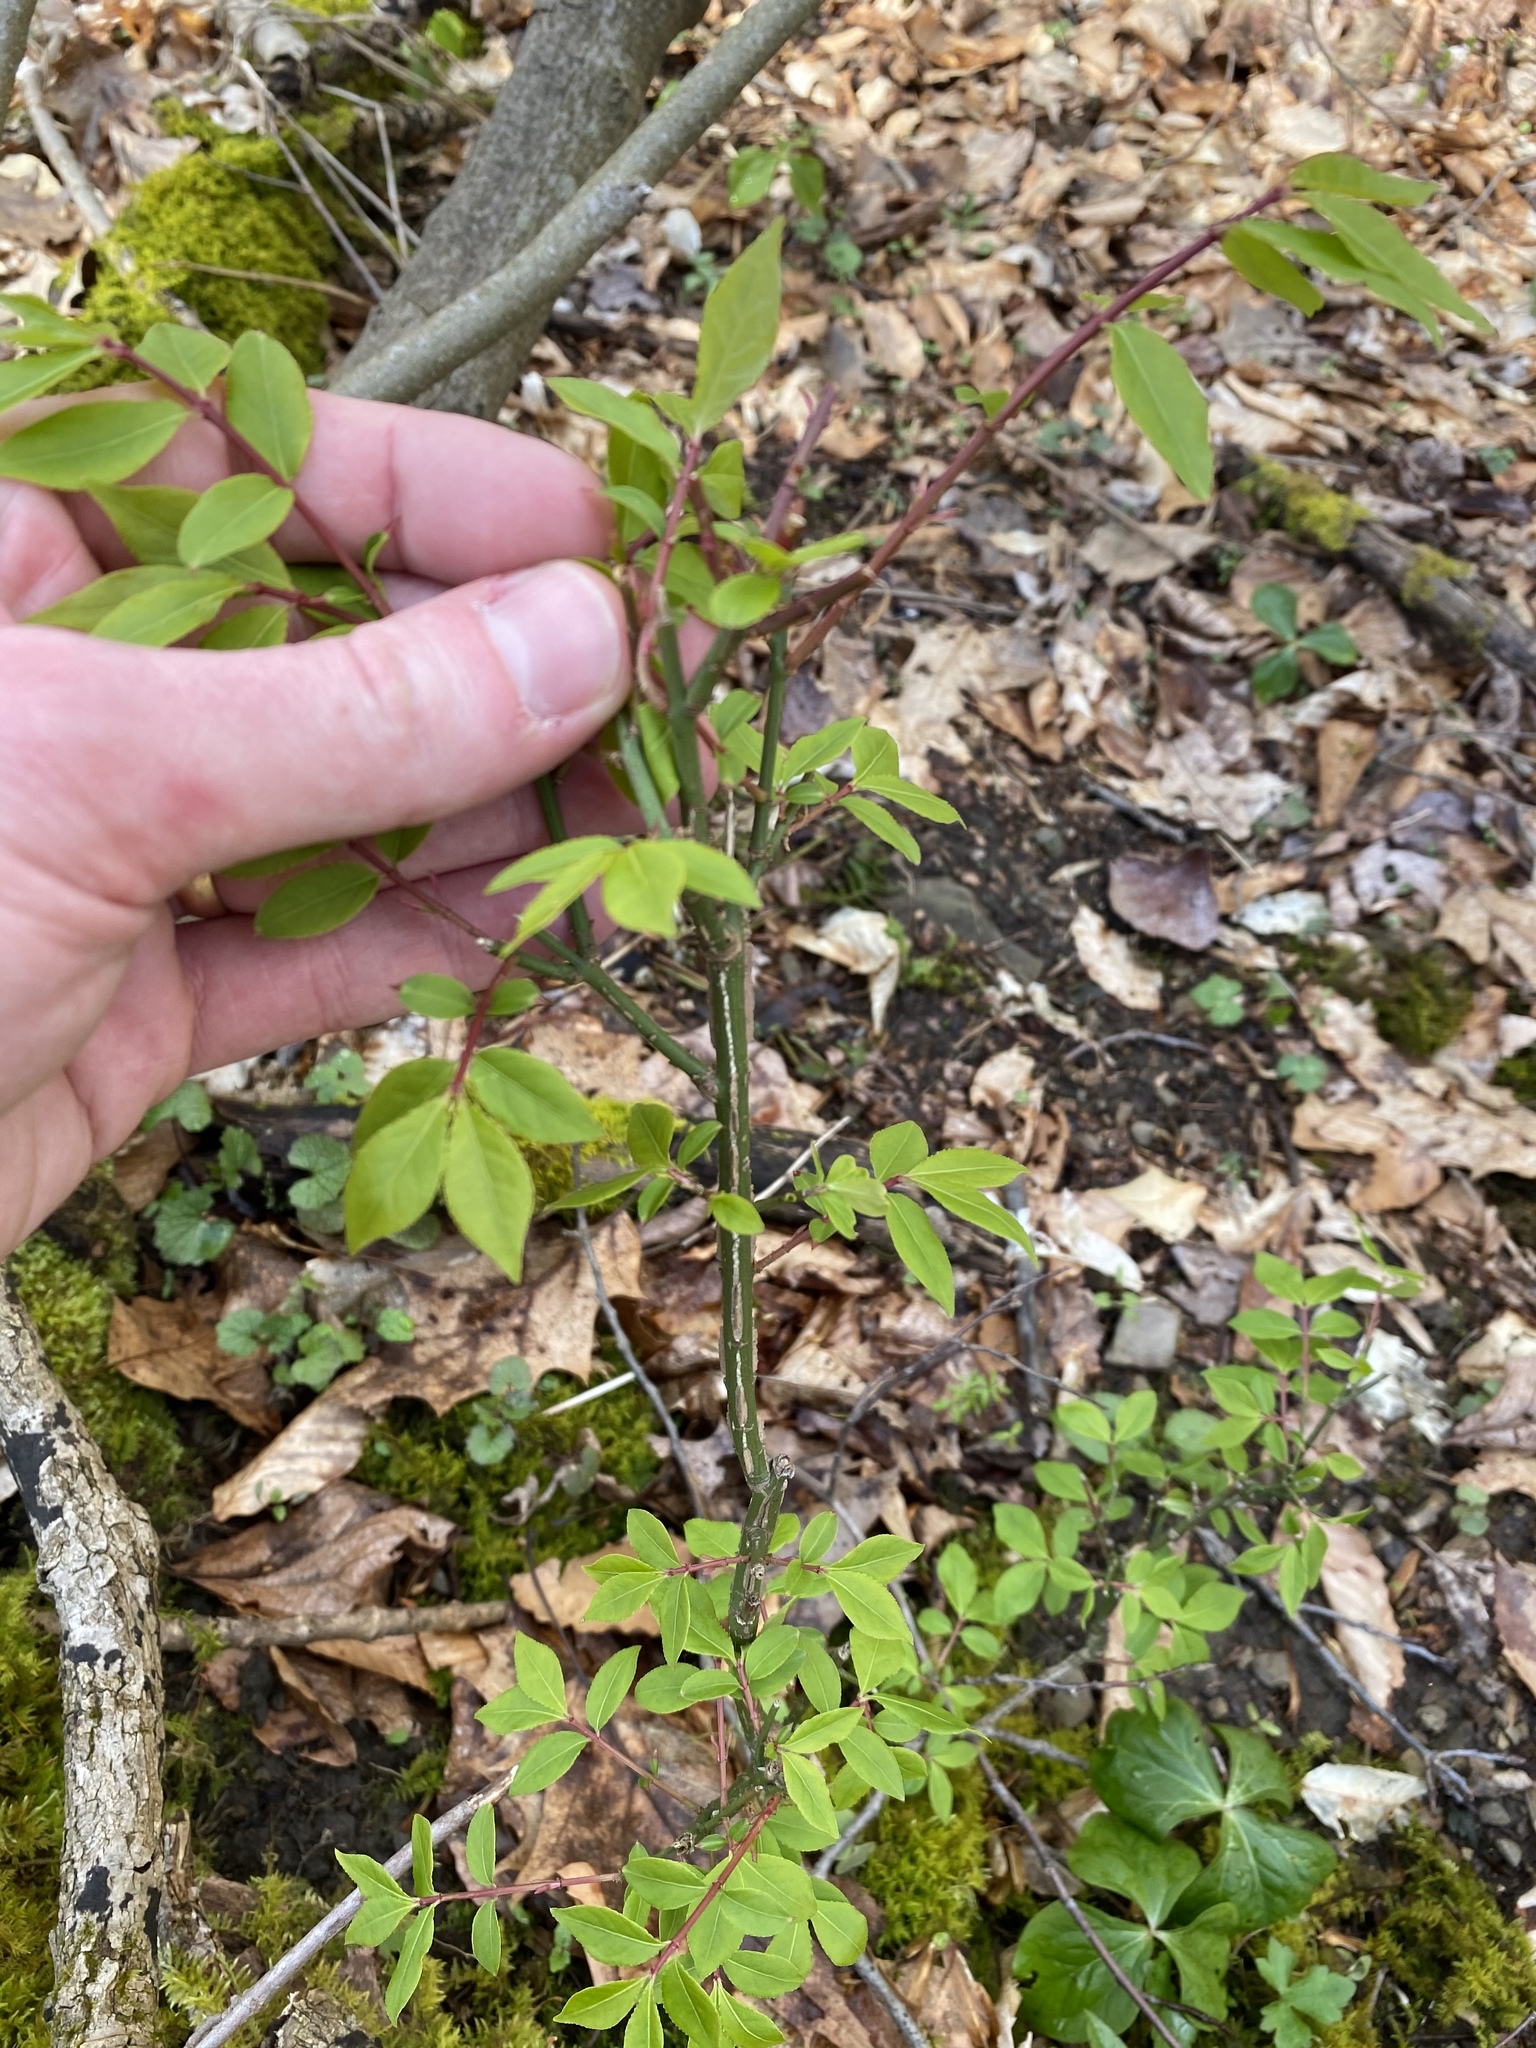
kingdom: Plantae
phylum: Tracheophyta
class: Magnoliopsida
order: Celastrales
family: Celastraceae
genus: Euonymus
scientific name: Euonymus alatus
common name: Winged euonymus
